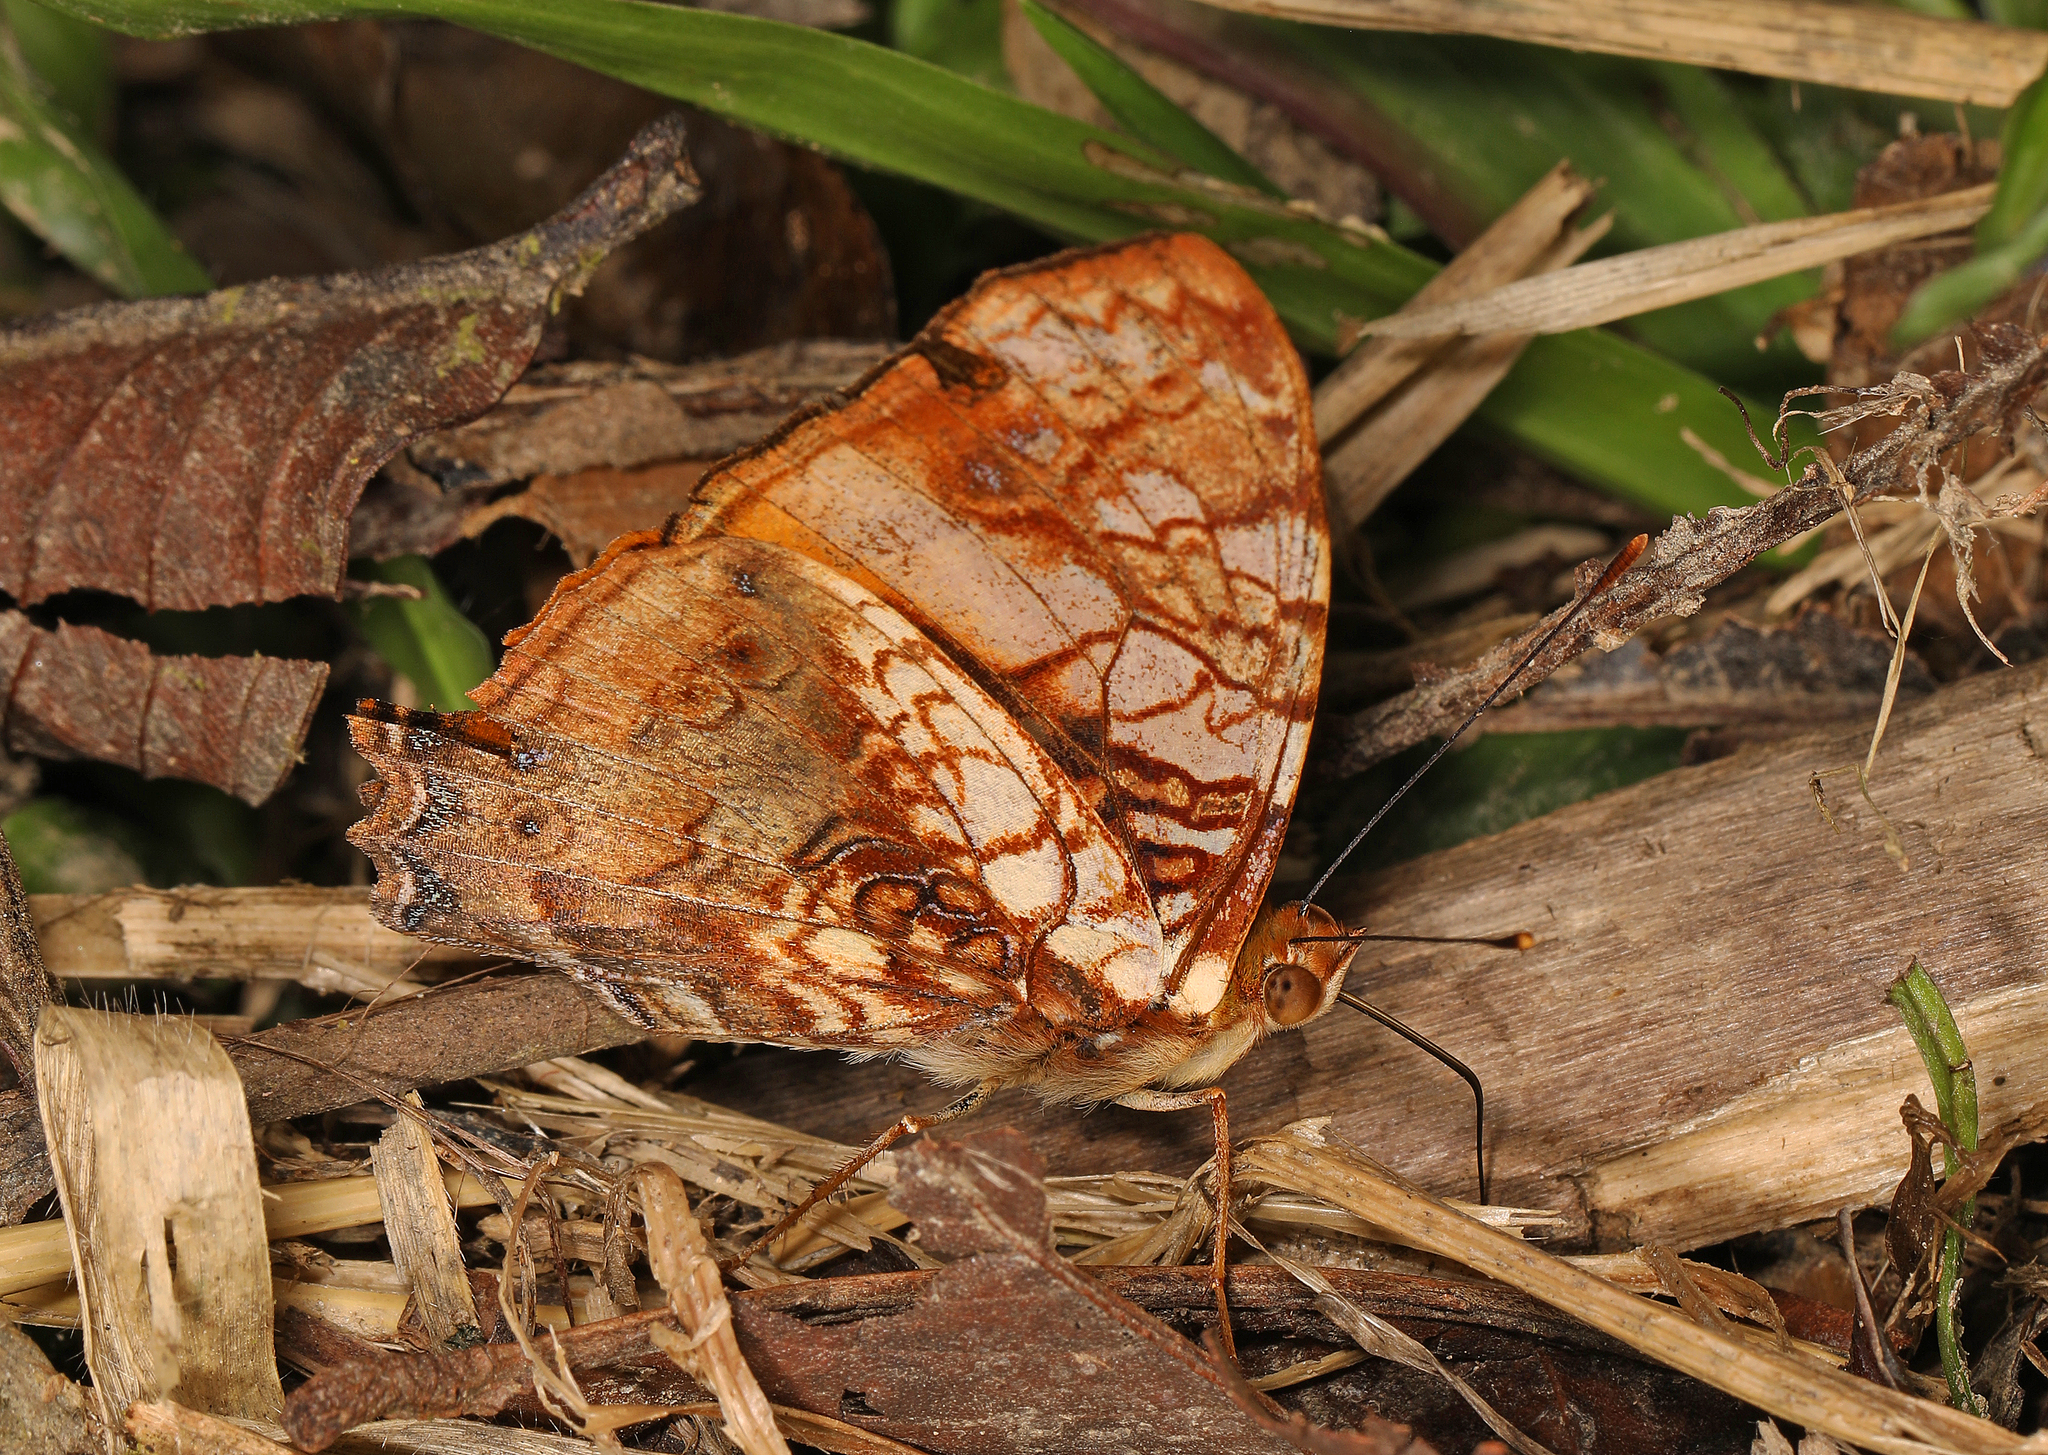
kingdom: Animalia
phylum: Arthropoda
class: Insecta
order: Lepidoptera
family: Nymphalidae
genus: Hypanartia
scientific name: Hypanartia lethe
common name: Orange mapwing
